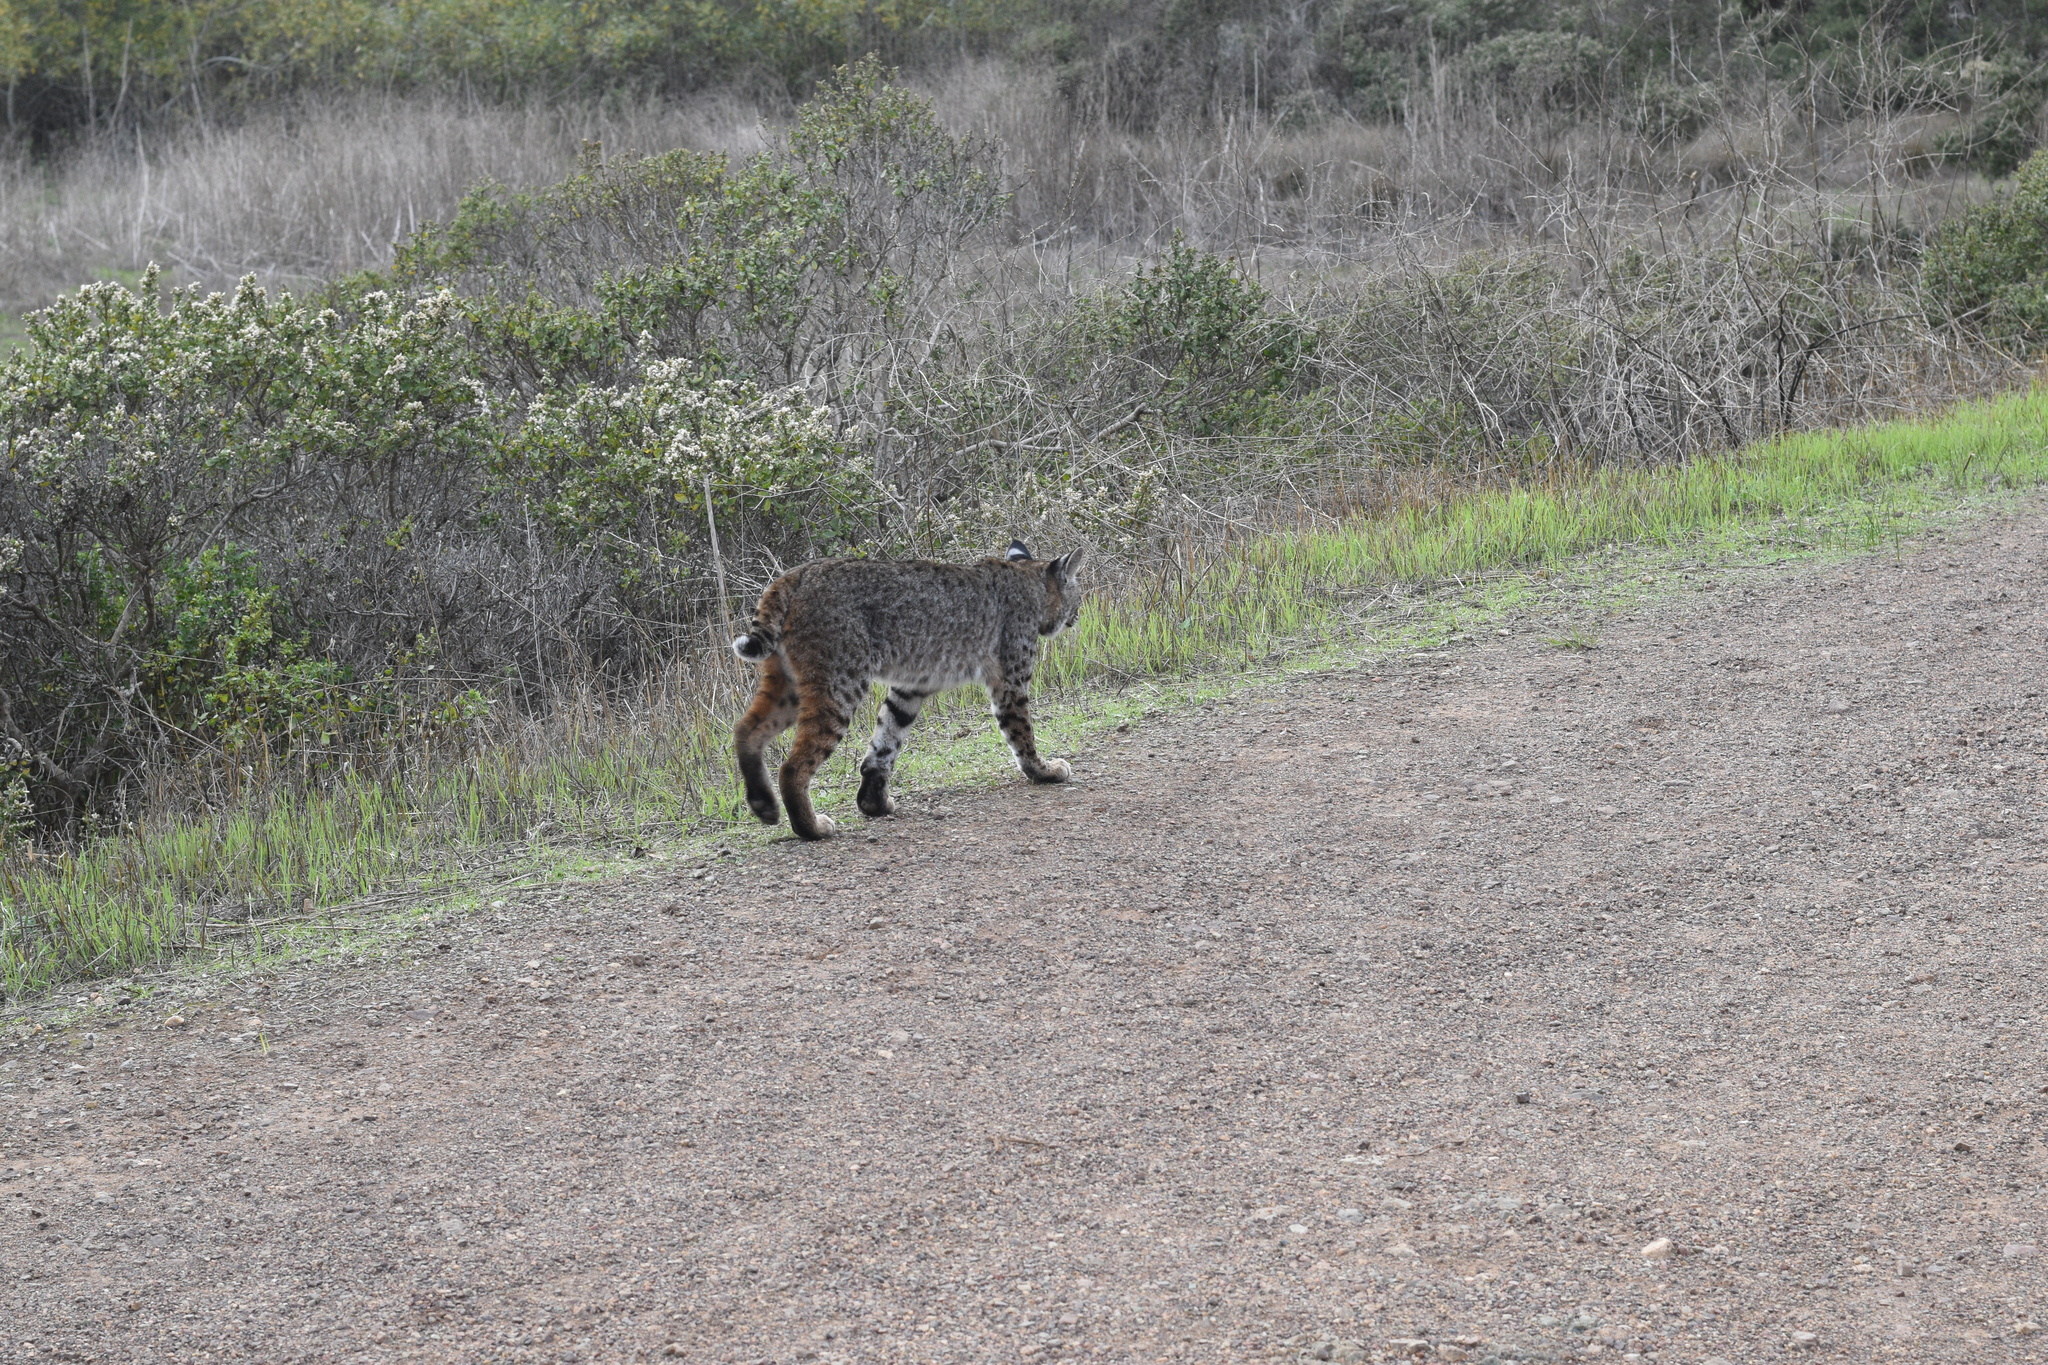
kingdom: Animalia
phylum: Chordata
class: Mammalia
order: Carnivora
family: Felidae
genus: Lynx
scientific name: Lynx rufus
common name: Bobcat
